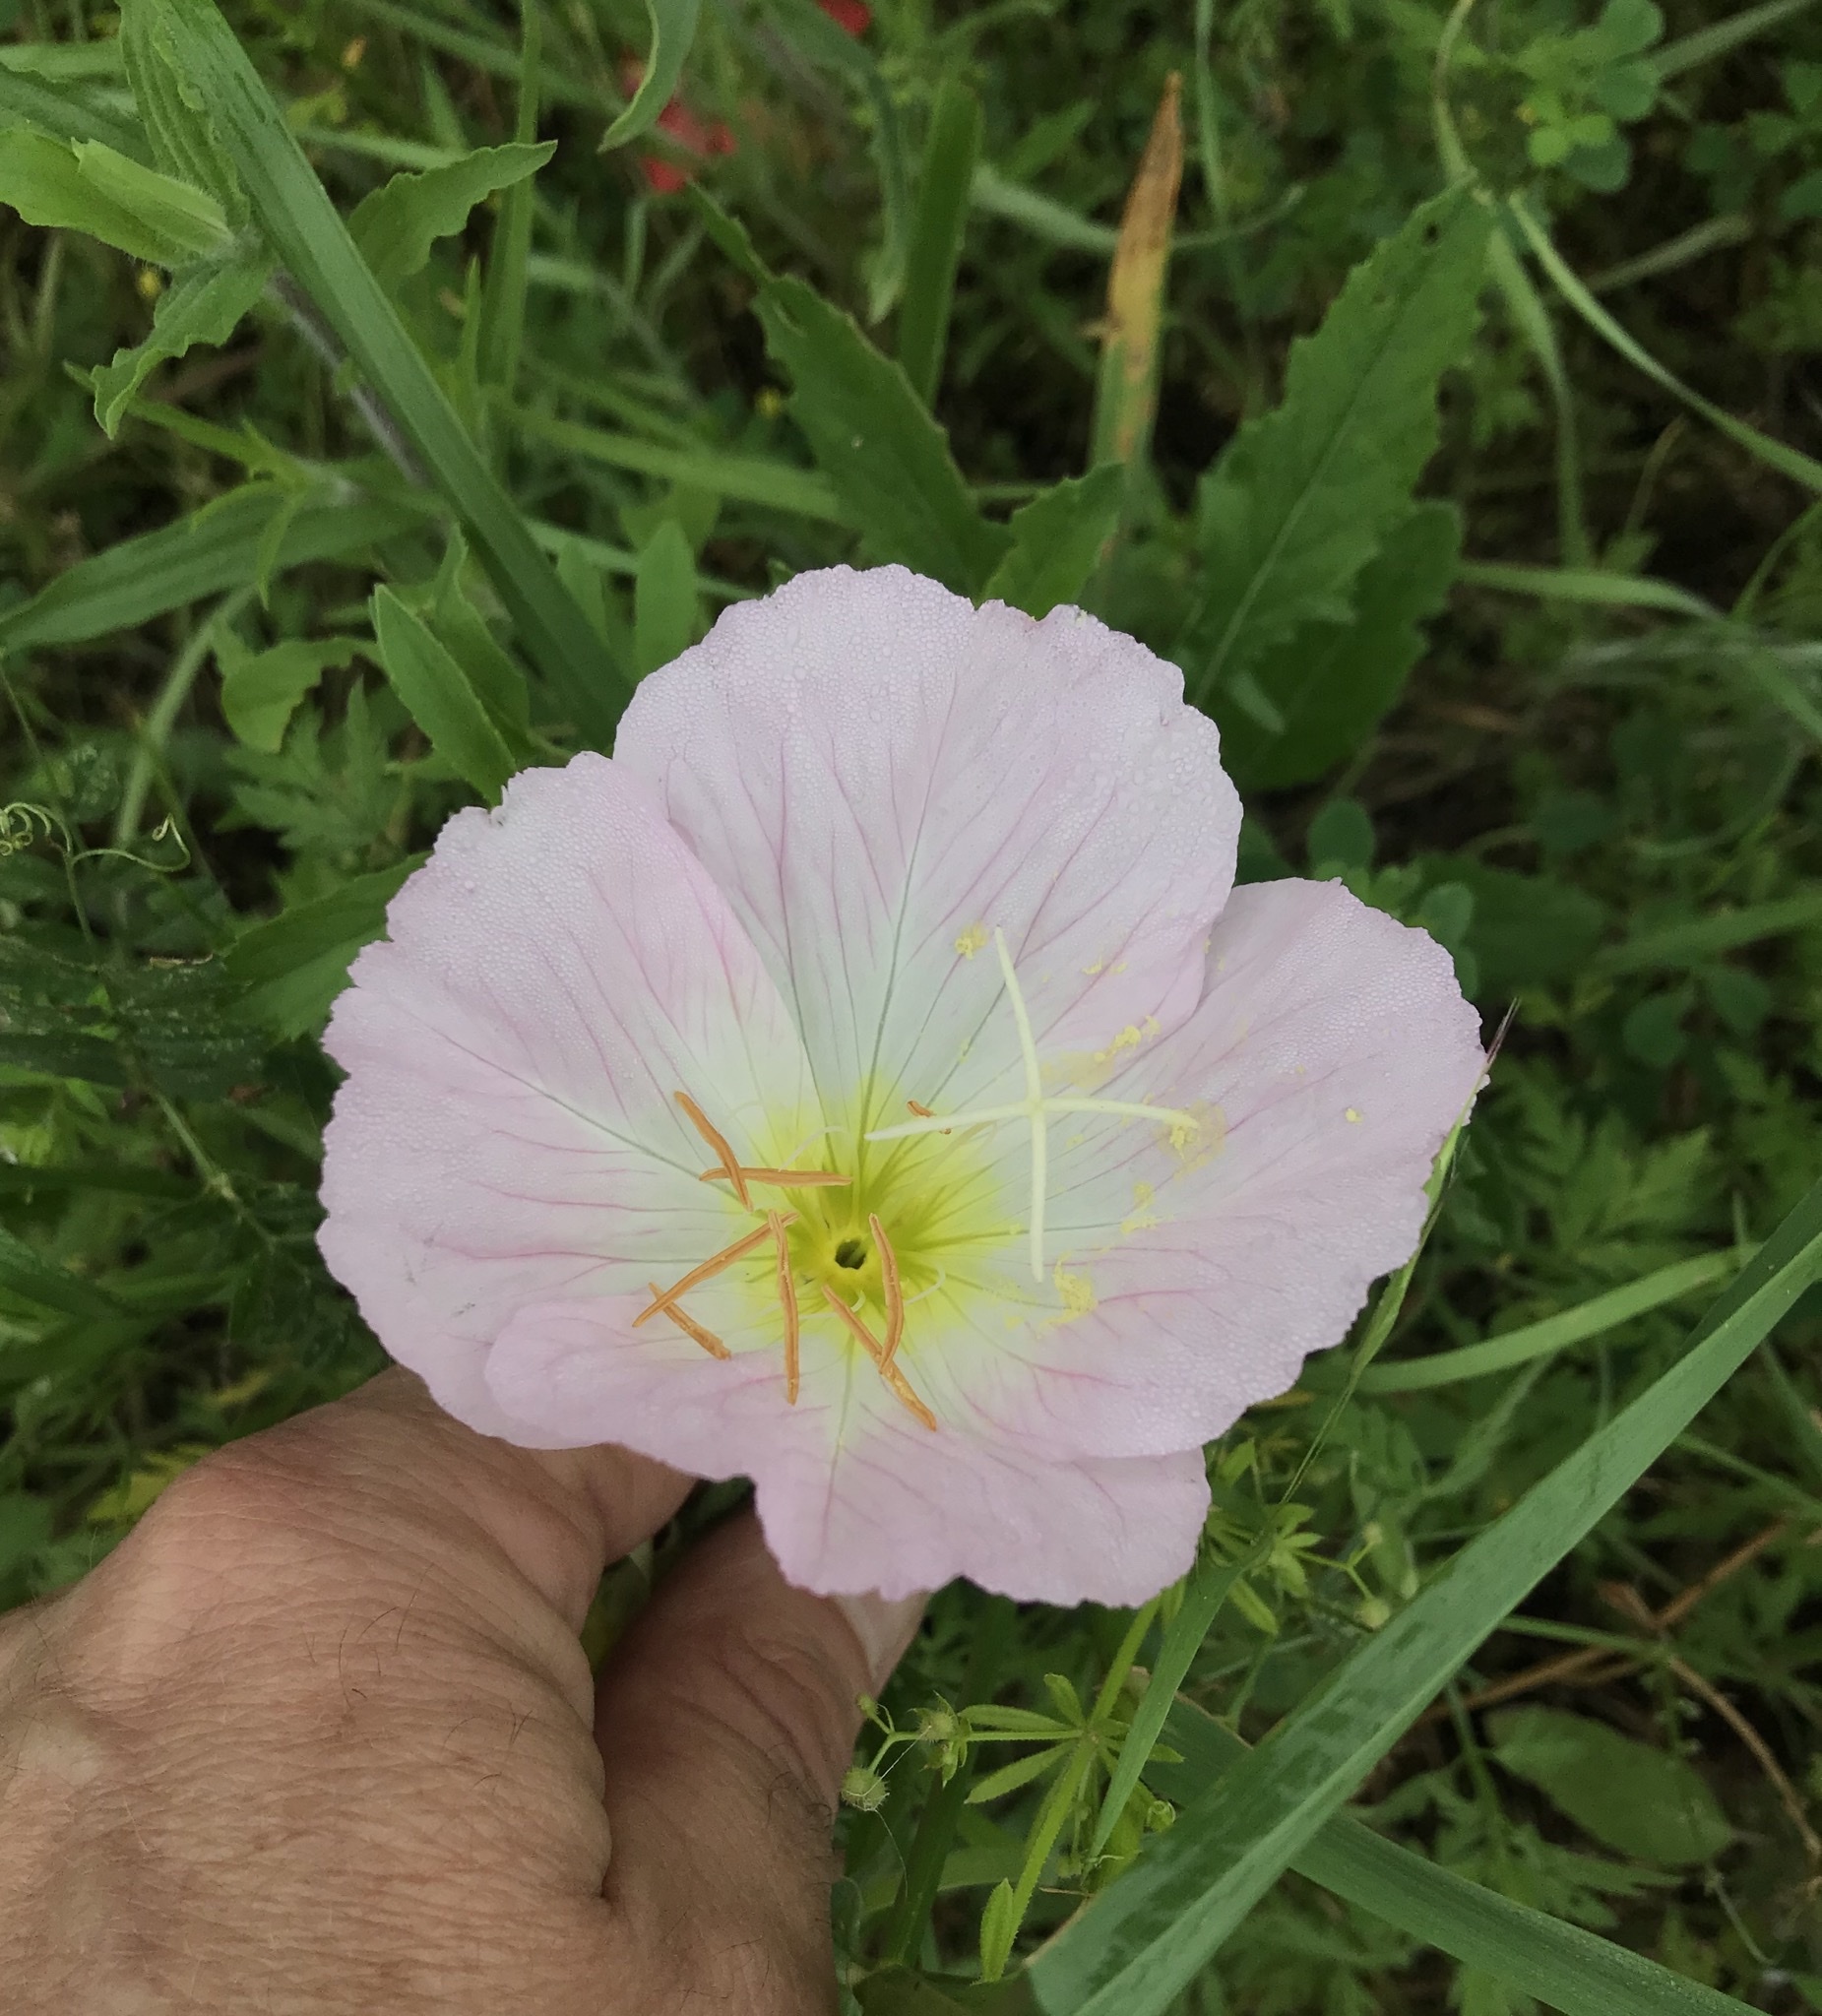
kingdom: Plantae
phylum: Tracheophyta
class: Magnoliopsida
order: Myrtales
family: Onagraceae
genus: Oenothera
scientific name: Oenothera speciosa
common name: White evening-primrose
